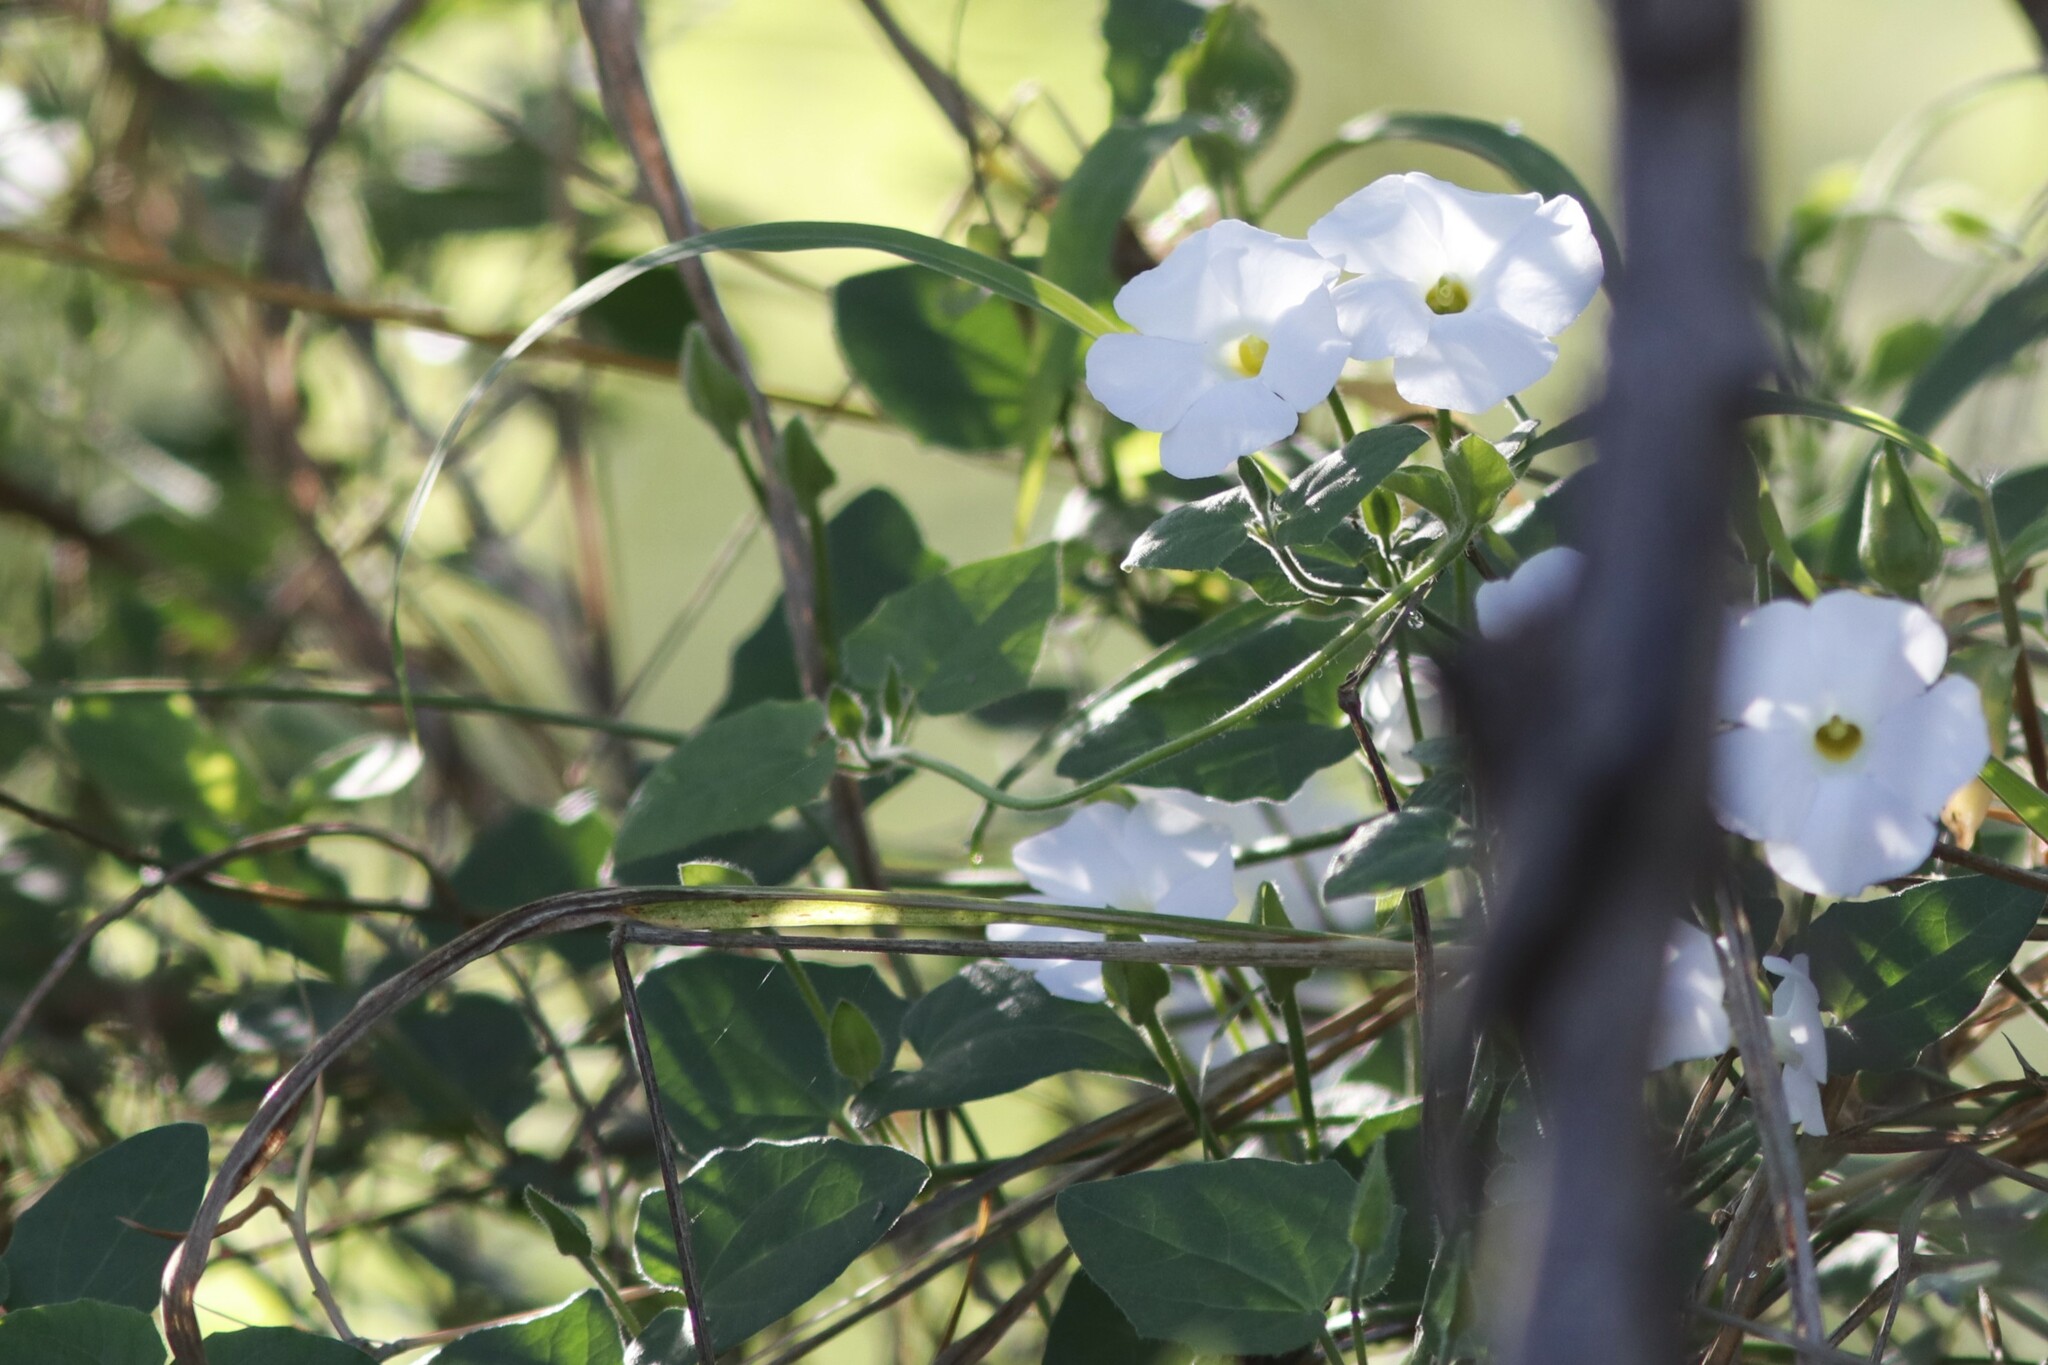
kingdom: Plantae
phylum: Tracheophyta
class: Magnoliopsida
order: Lamiales
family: Acanthaceae
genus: Thunbergia
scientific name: Thunbergia neglecta
